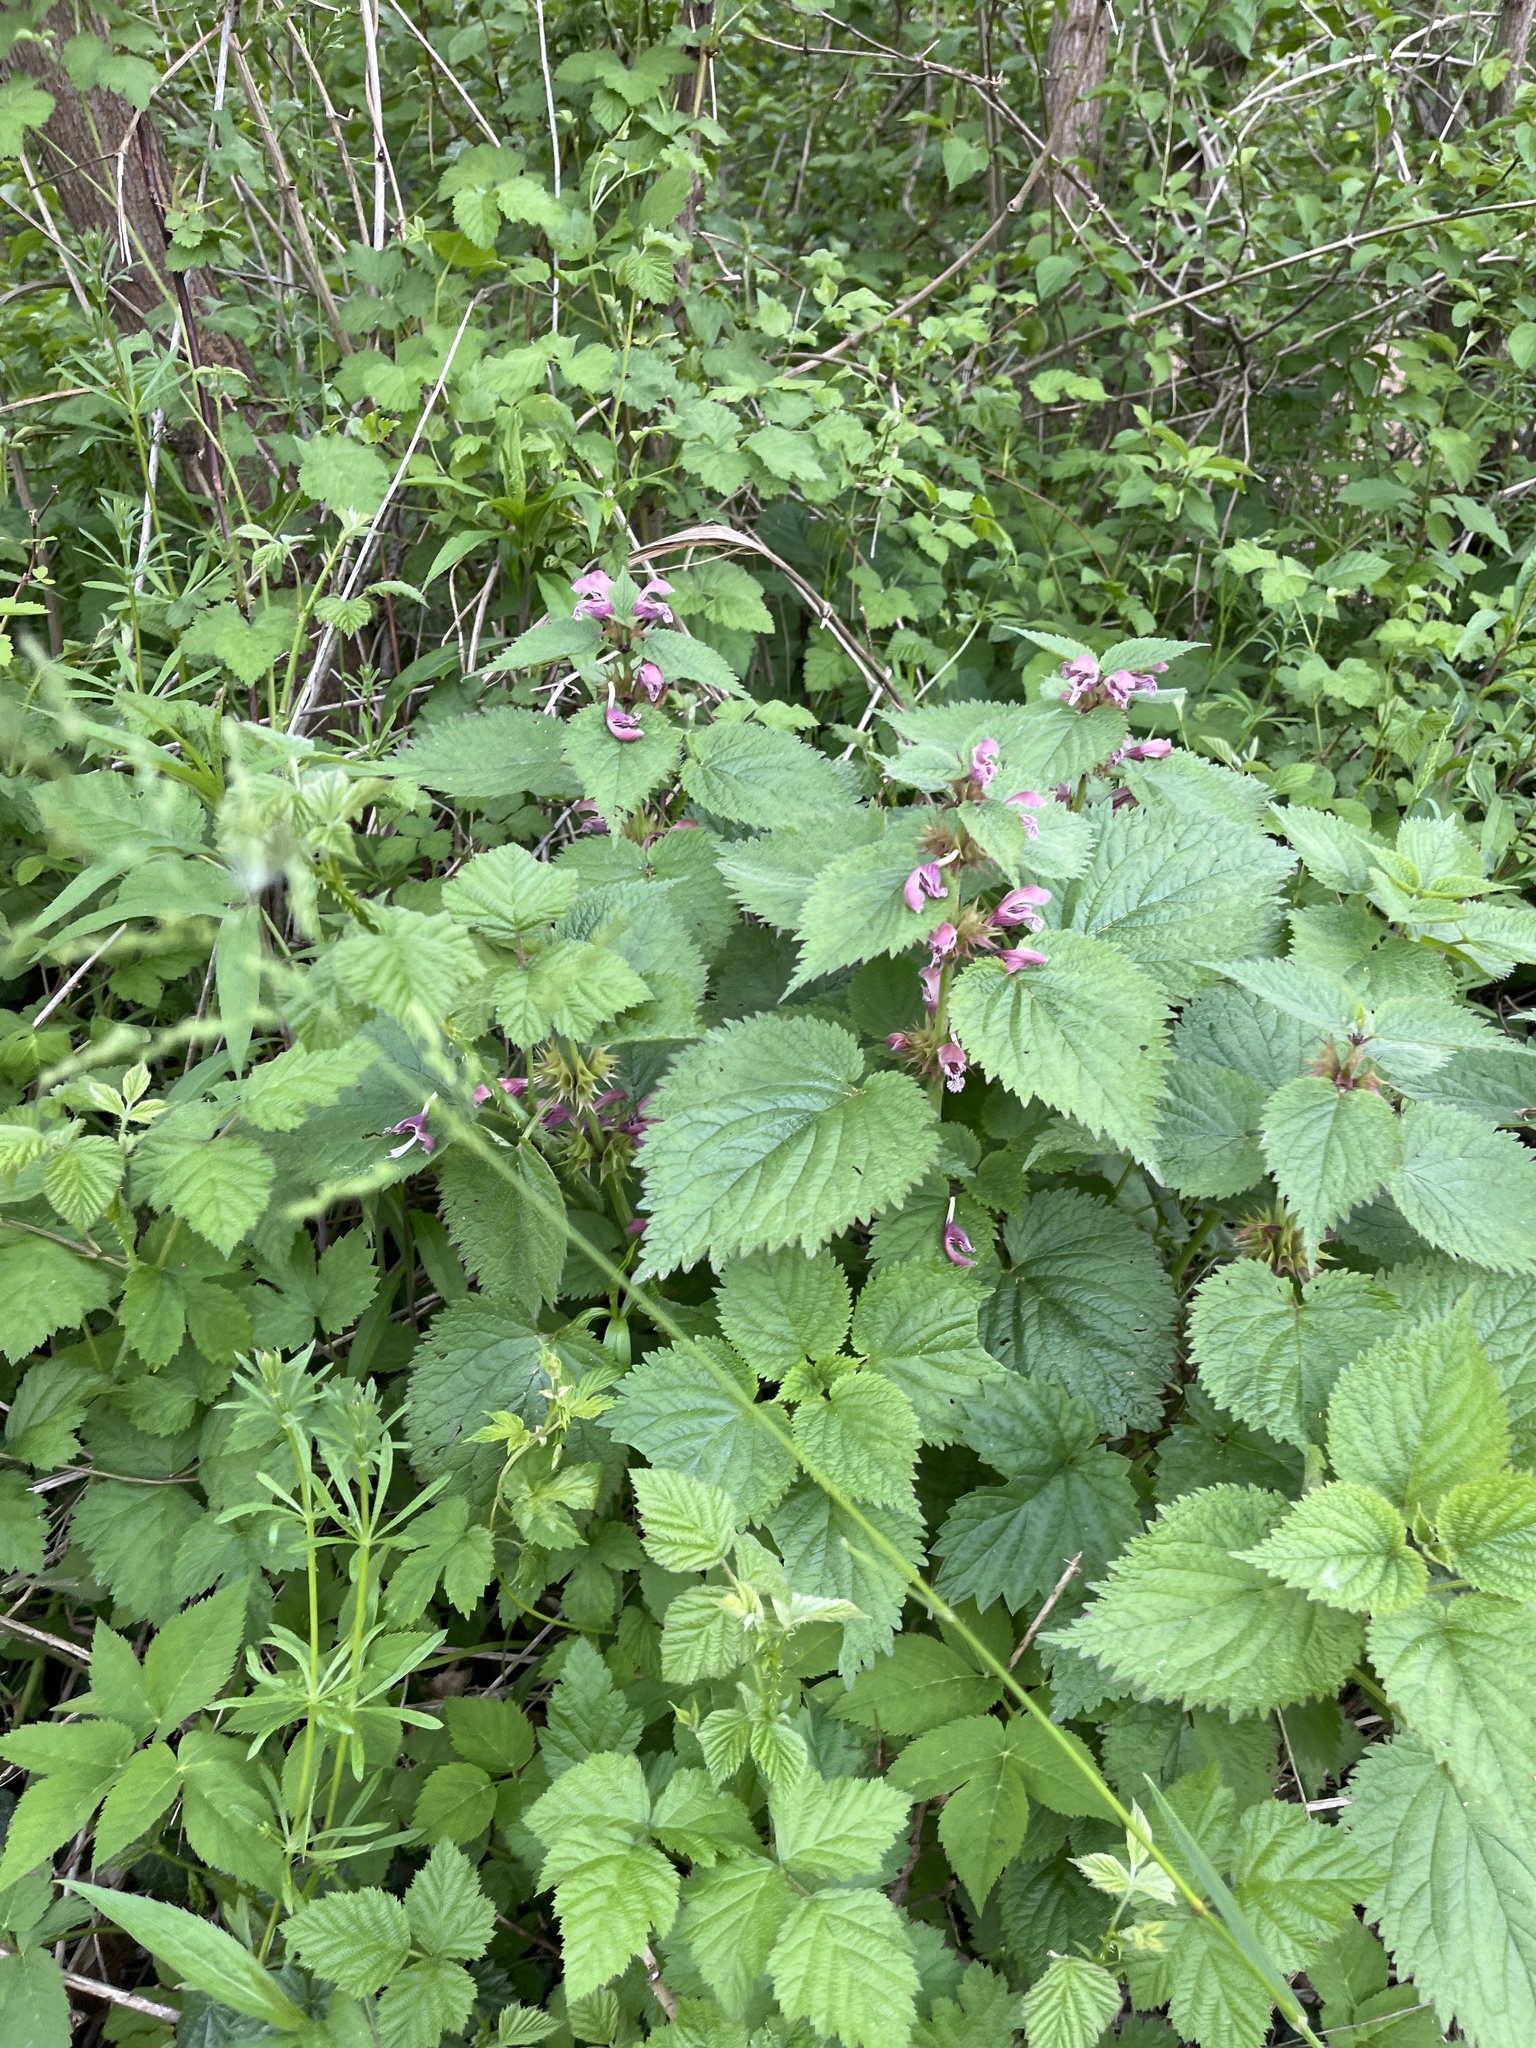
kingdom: Plantae
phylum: Tracheophyta
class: Magnoliopsida
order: Lamiales
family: Lamiaceae
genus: Lamium
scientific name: Lamium orvala
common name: Balm-leaved archangel
